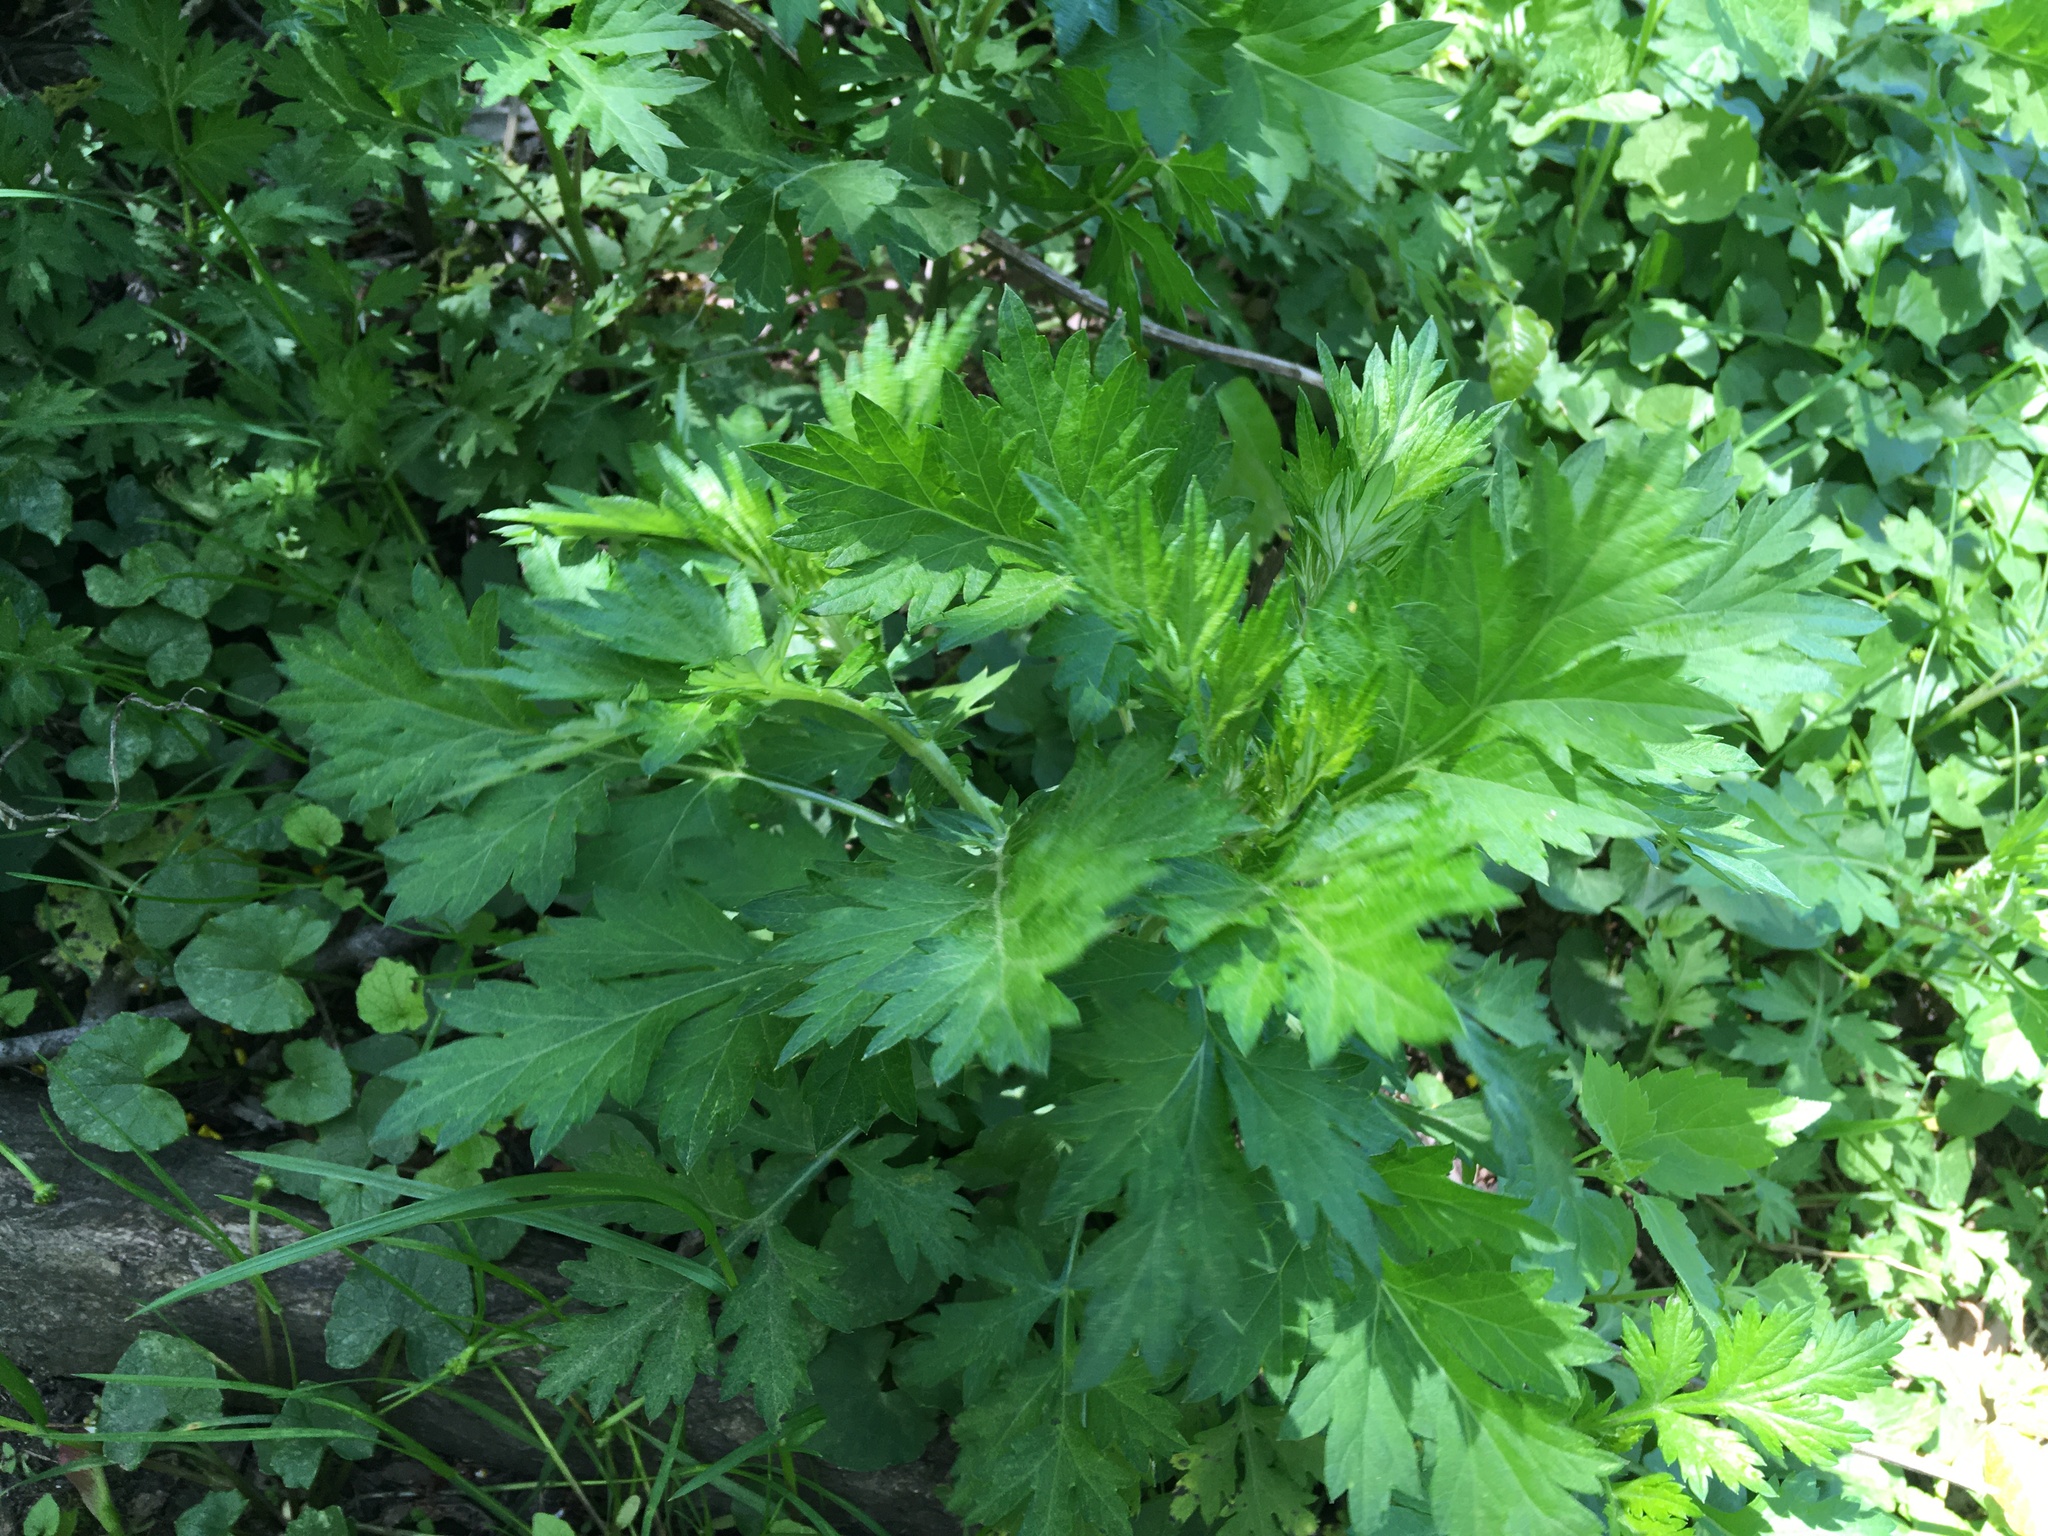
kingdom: Plantae
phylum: Tracheophyta
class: Magnoliopsida
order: Asterales
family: Asteraceae
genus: Artemisia
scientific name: Artemisia vulgaris
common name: Mugwort
